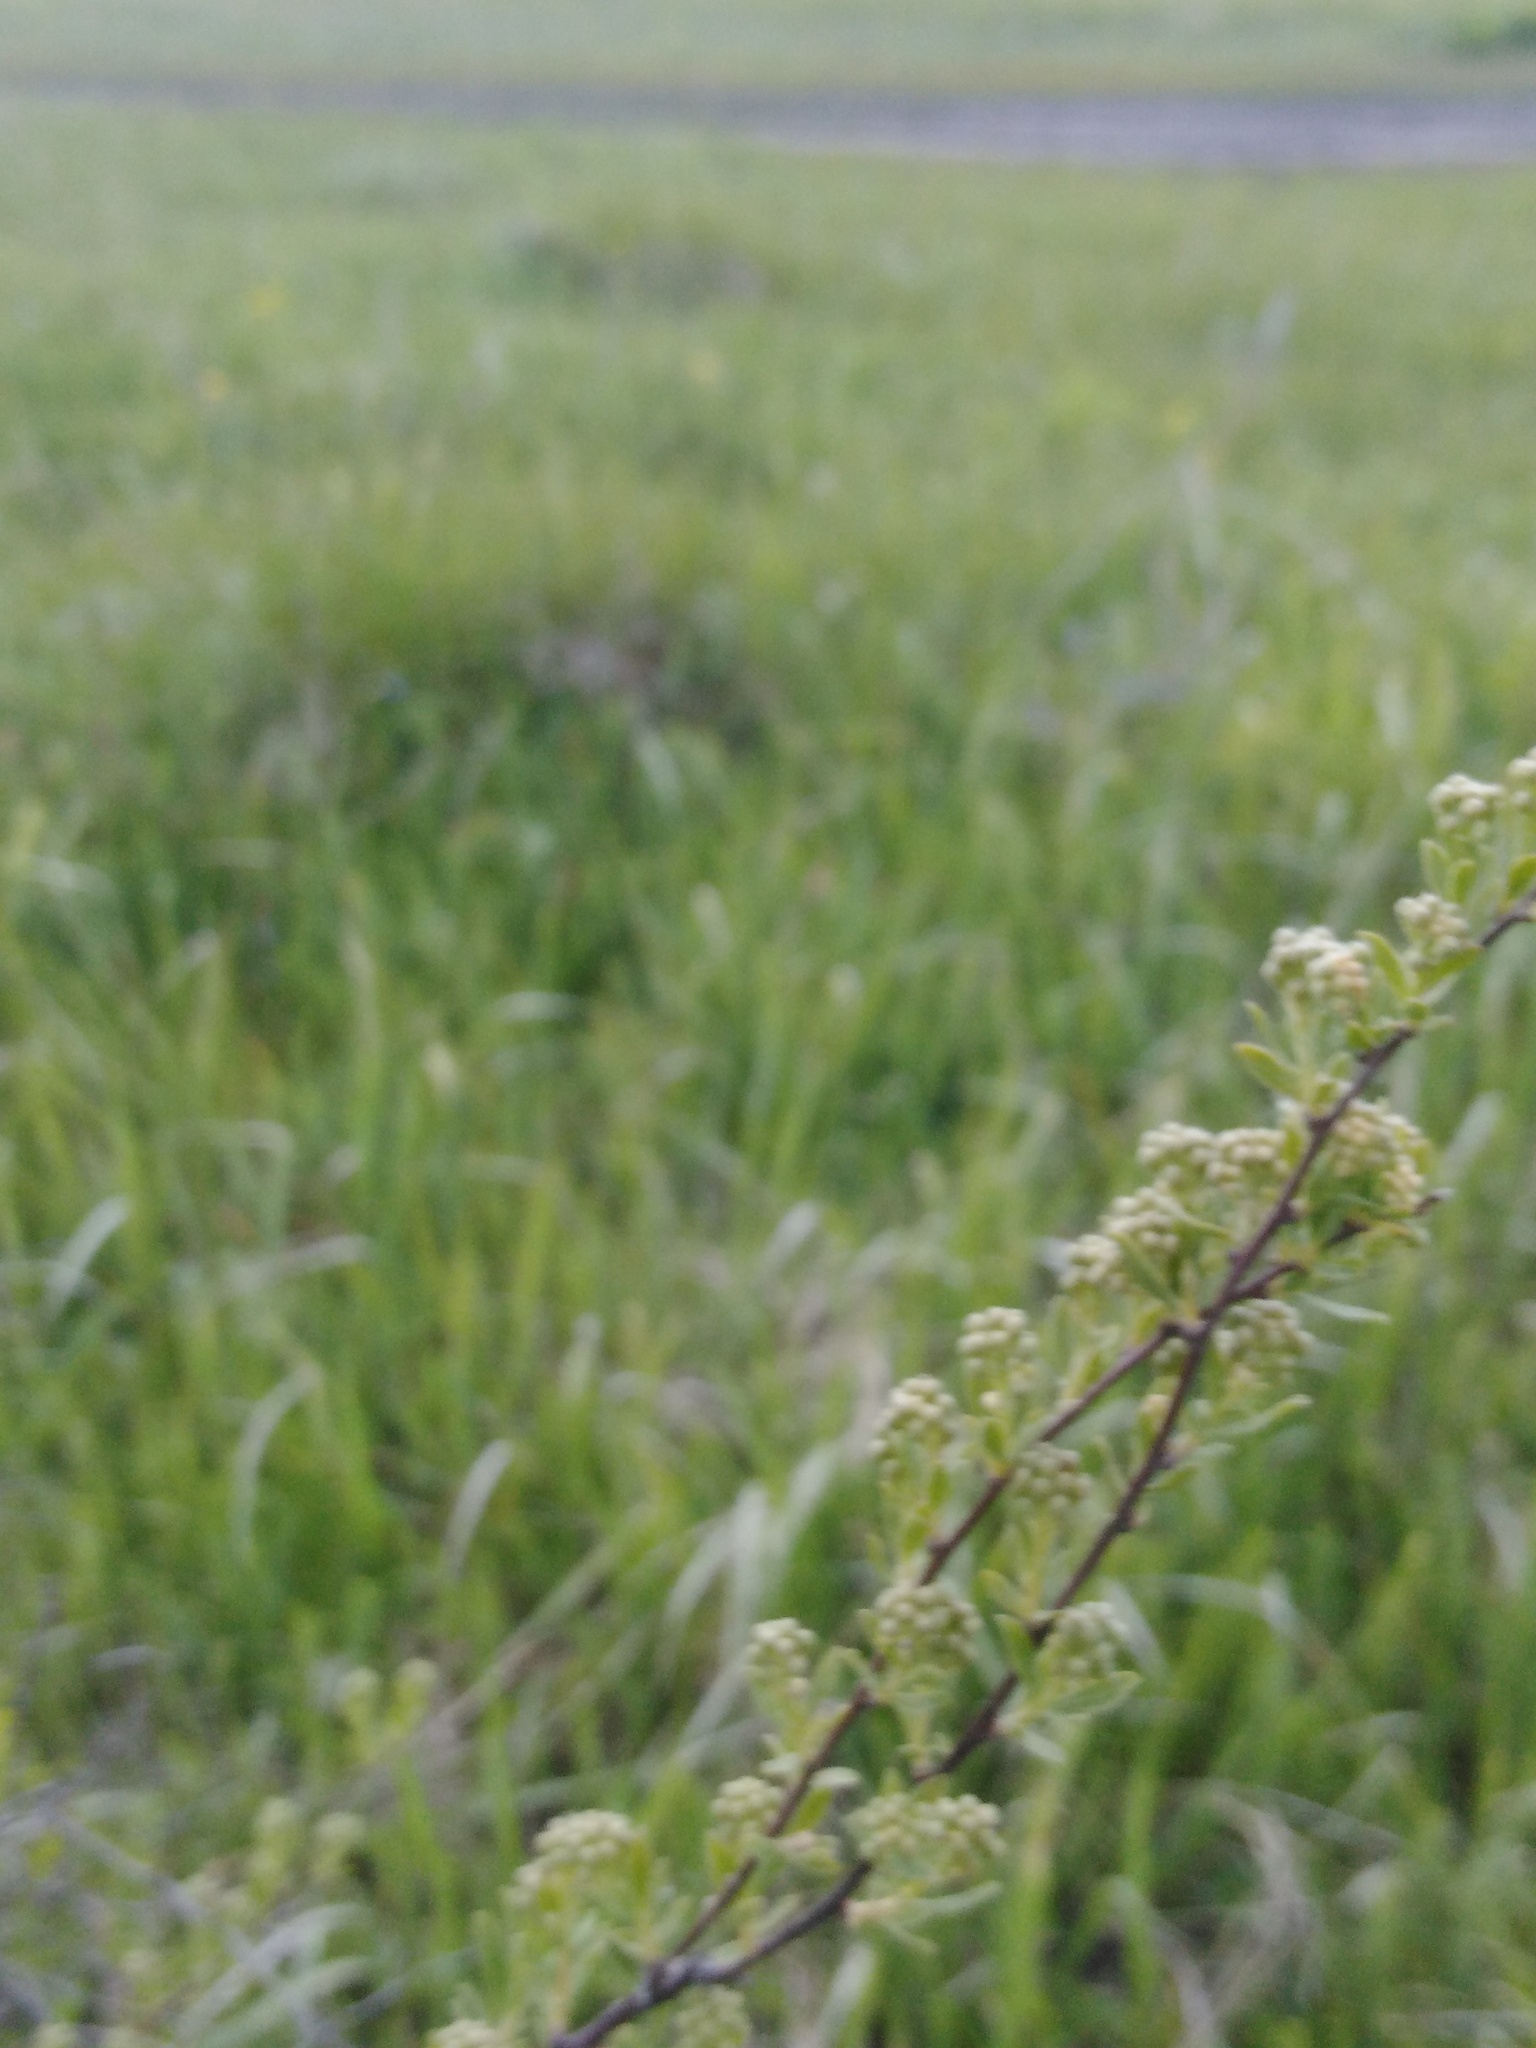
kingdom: Plantae
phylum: Tracheophyta
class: Magnoliopsida
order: Rosales
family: Rosaceae
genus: Spiraea
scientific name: Spiraea crenata
